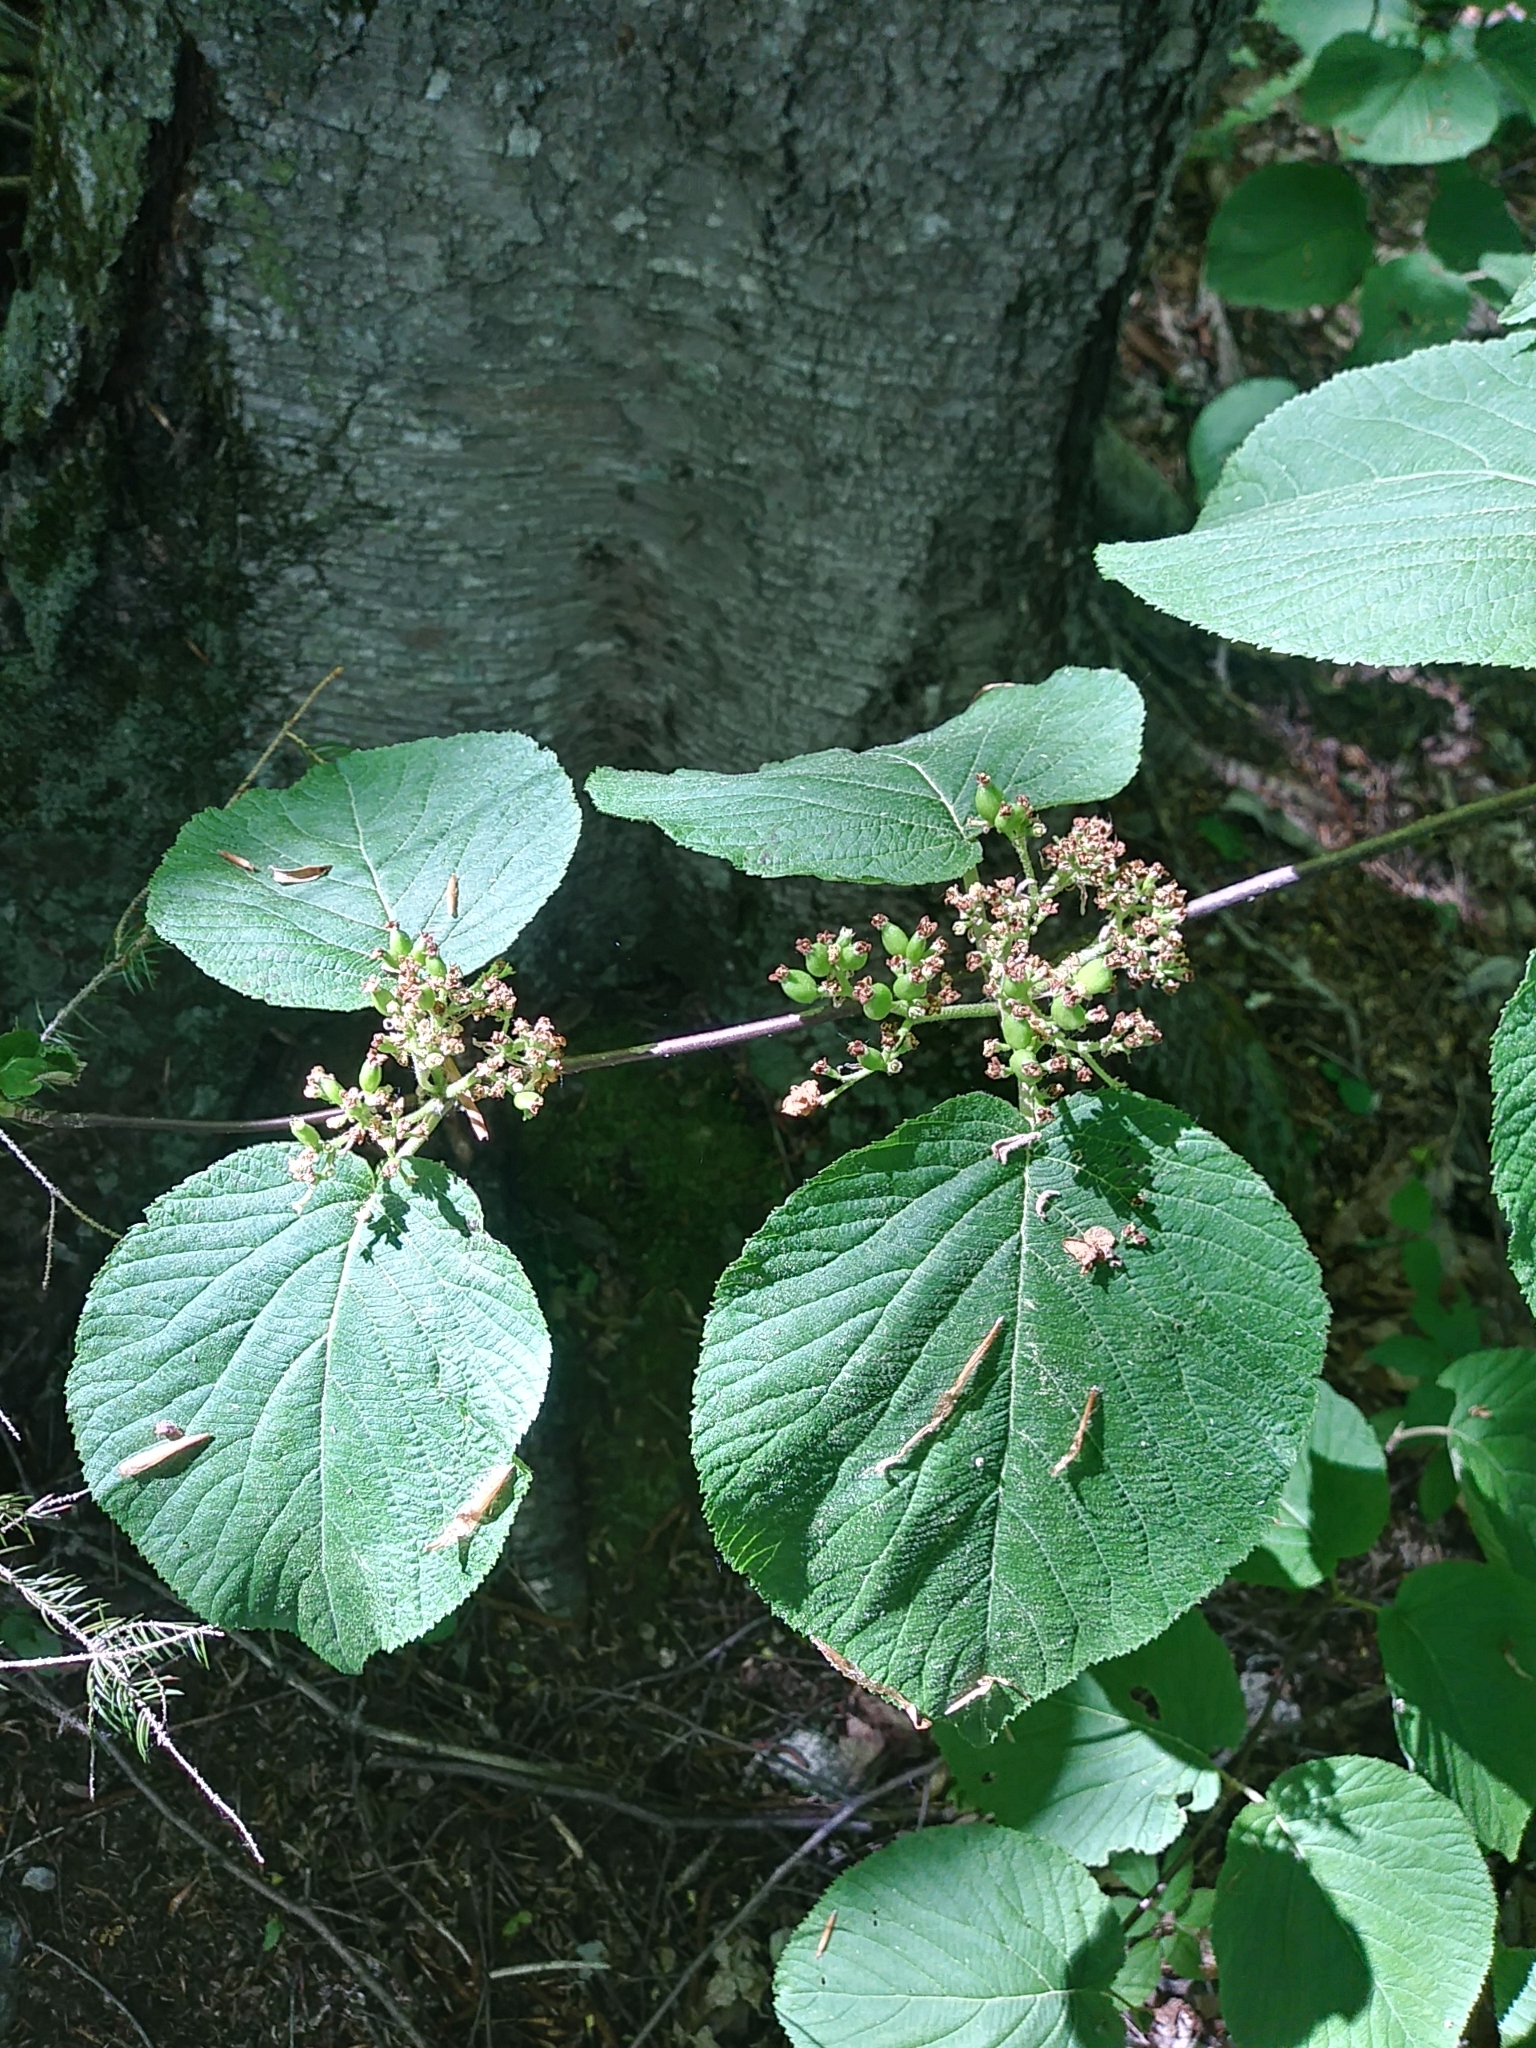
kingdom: Plantae
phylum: Tracheophyta
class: Magnoliopsida
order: Dipsacales
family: Viburnaceae
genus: Viburnum
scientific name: Viburnum lantanoides
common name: Hobblebush
